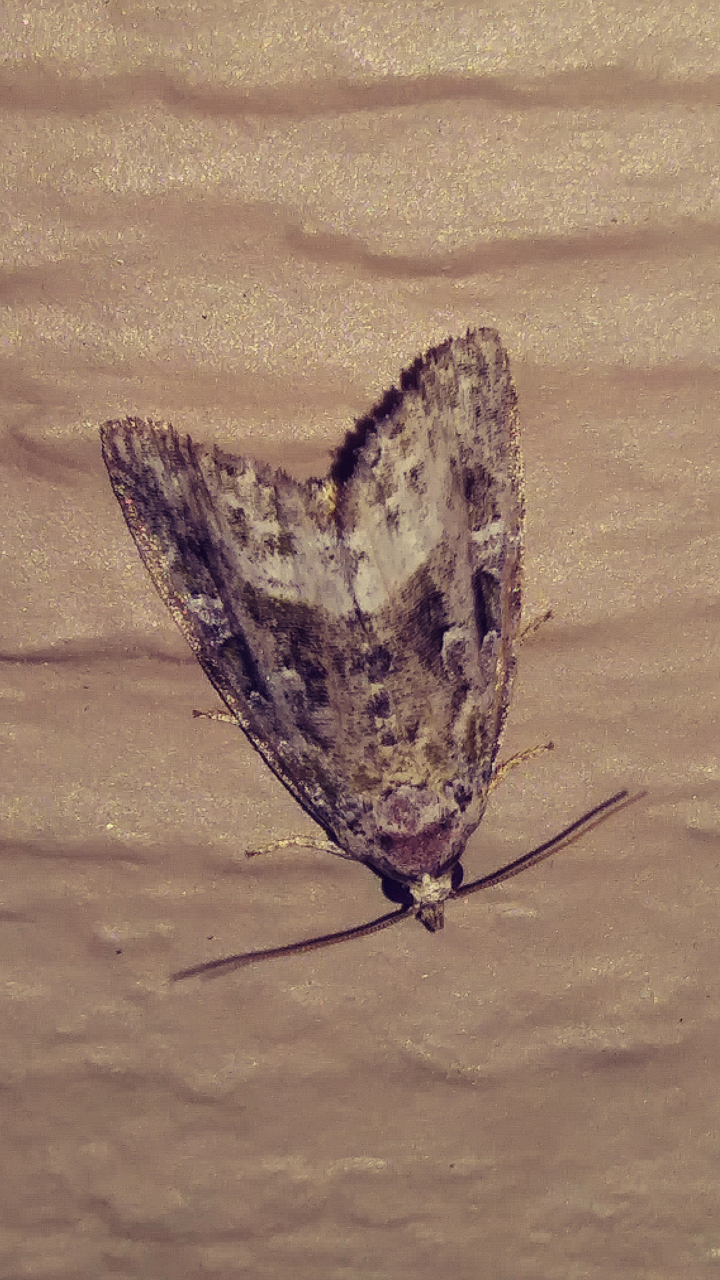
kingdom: Animalia
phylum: Arthropoda
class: Insecta
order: Lepidoptera
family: Noctuidae
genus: Protodeltote
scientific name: Protodeltote muscosula
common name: Large mossy glyph
